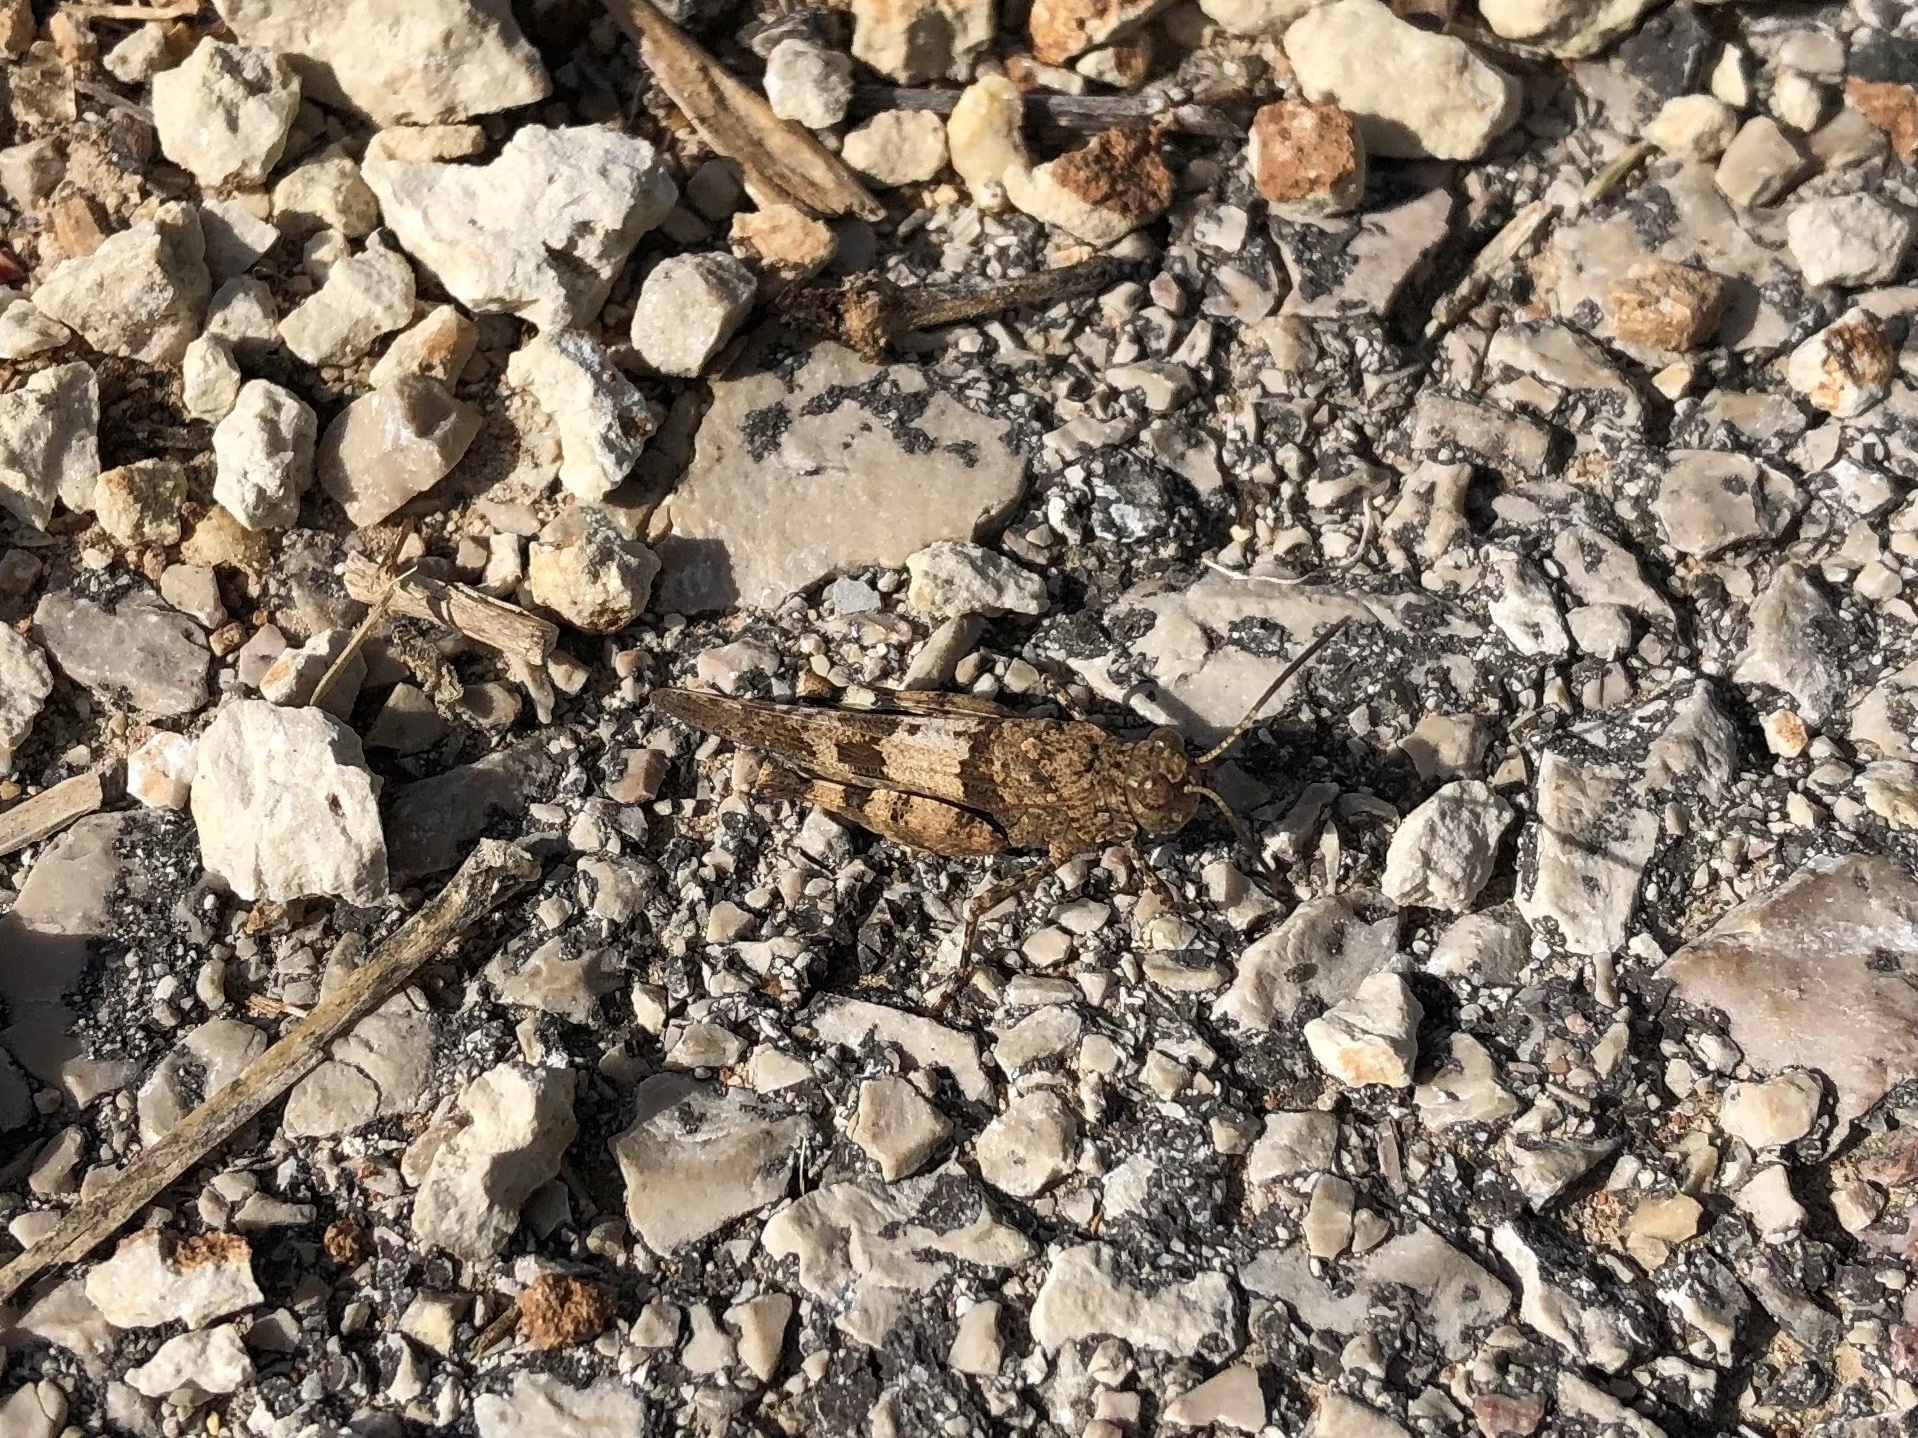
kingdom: Animalia
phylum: Arthropoda
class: Insecta
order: Orthoptera
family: Acrididae
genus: Oedipoda
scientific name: Oedipoda caerulescens
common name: Blue-winged grasshopper
